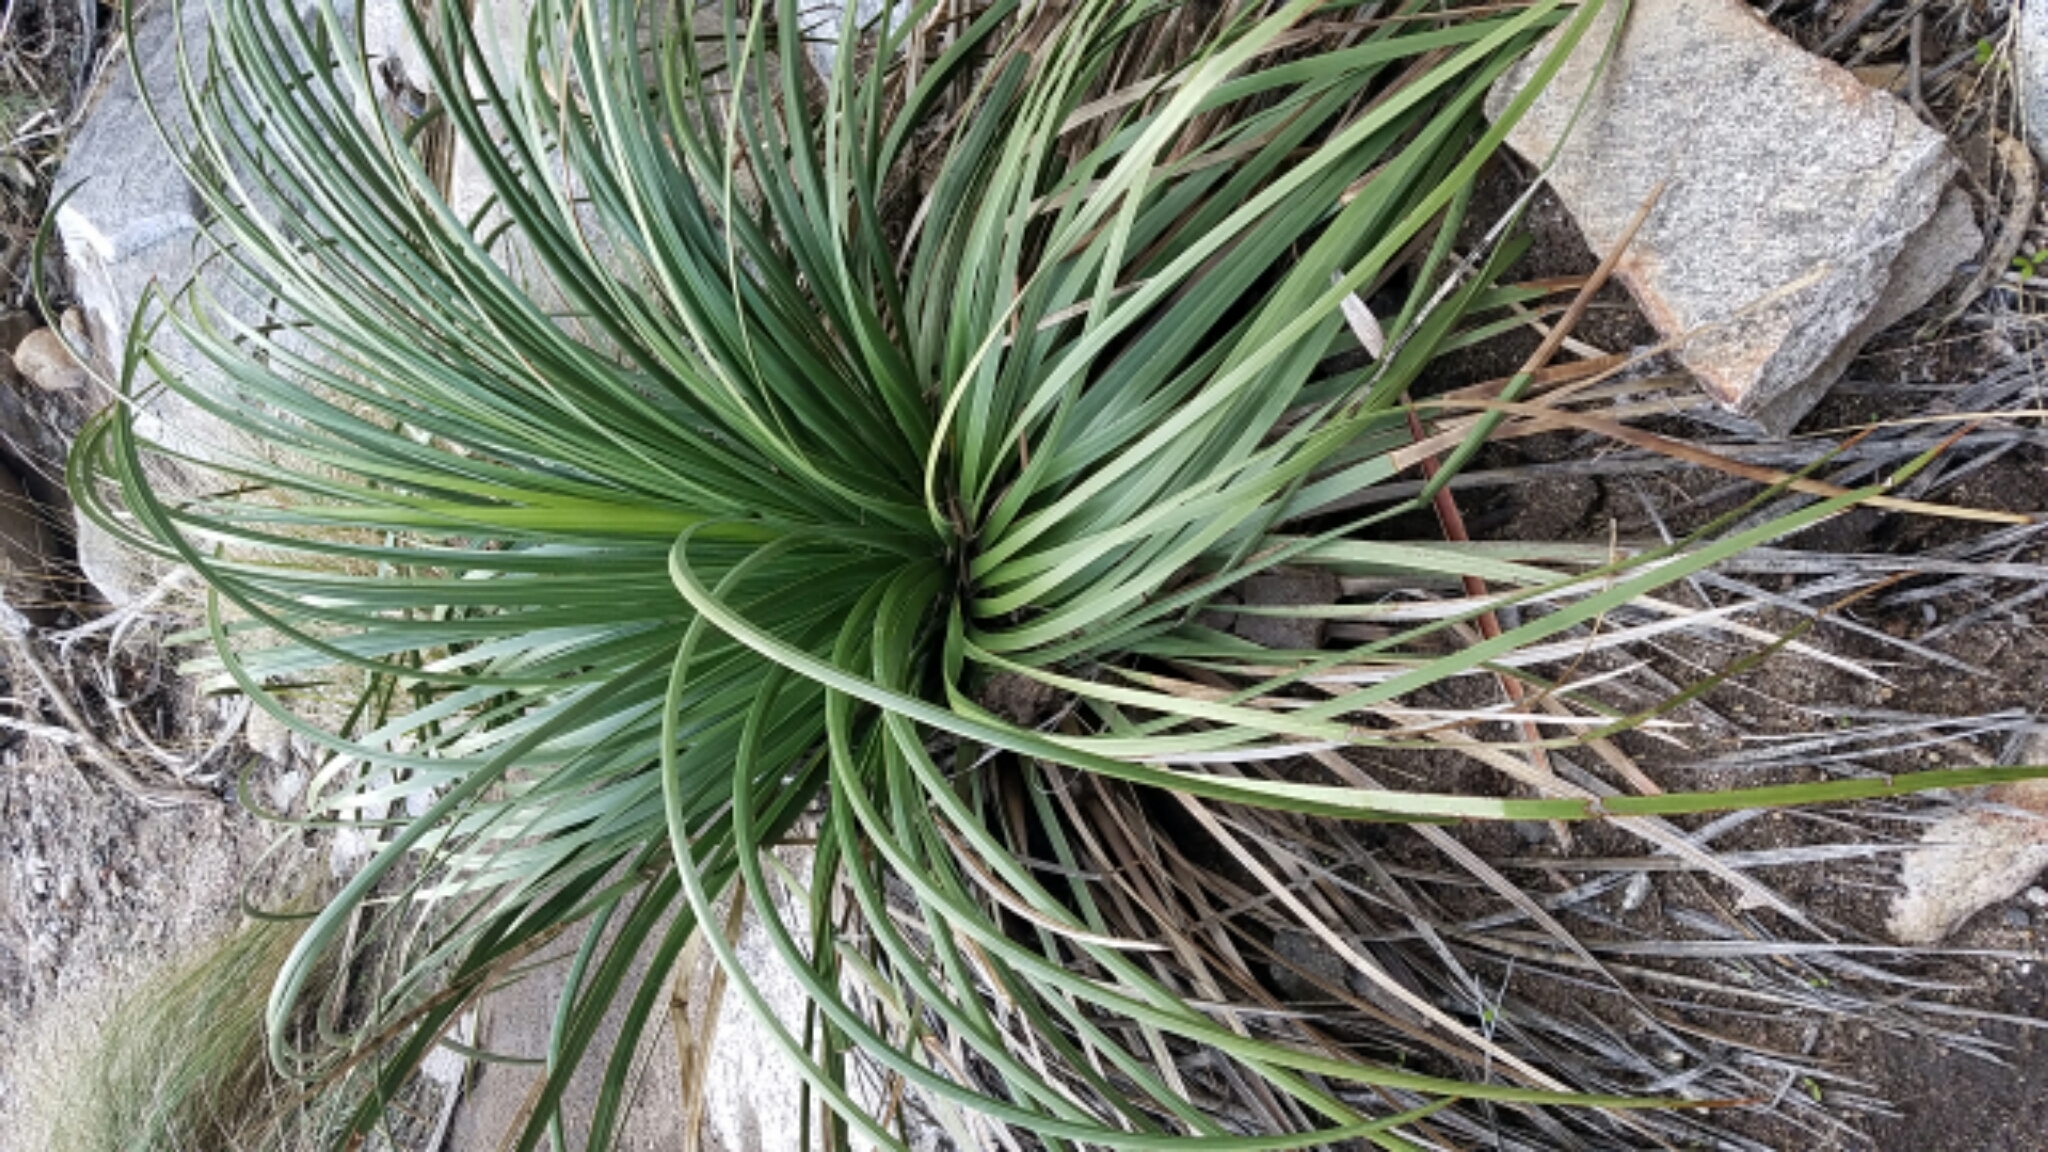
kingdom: Plantae
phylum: Tracheophyta
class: Liliopsida
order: Asparagales
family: Asparagaceae
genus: Hesperoyucca
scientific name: Hesperoyucca whipplei
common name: Our lord's-candle
